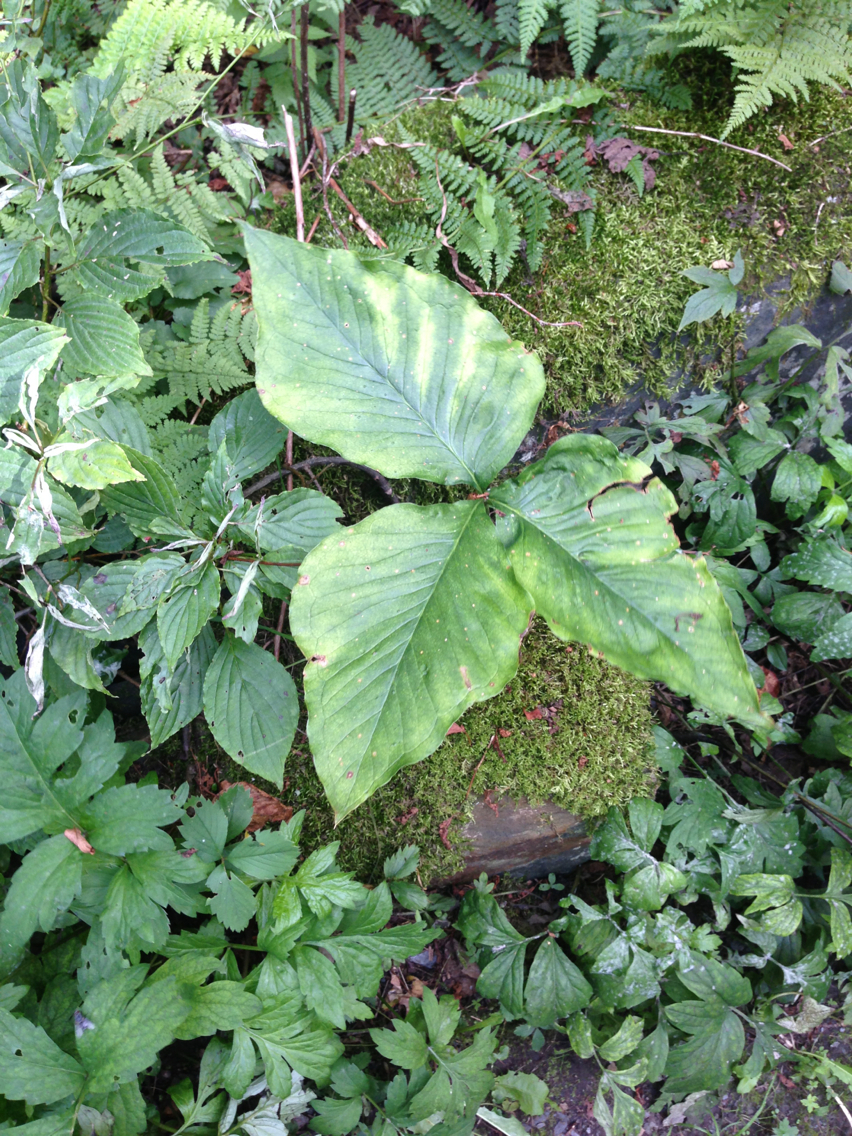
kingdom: Plantae
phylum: Tracheophyta
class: Liliopsida
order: Alismatales
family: Araceae
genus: Arisaema
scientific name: Arisaema triphyllum
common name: Jack-in-the-pulpit
